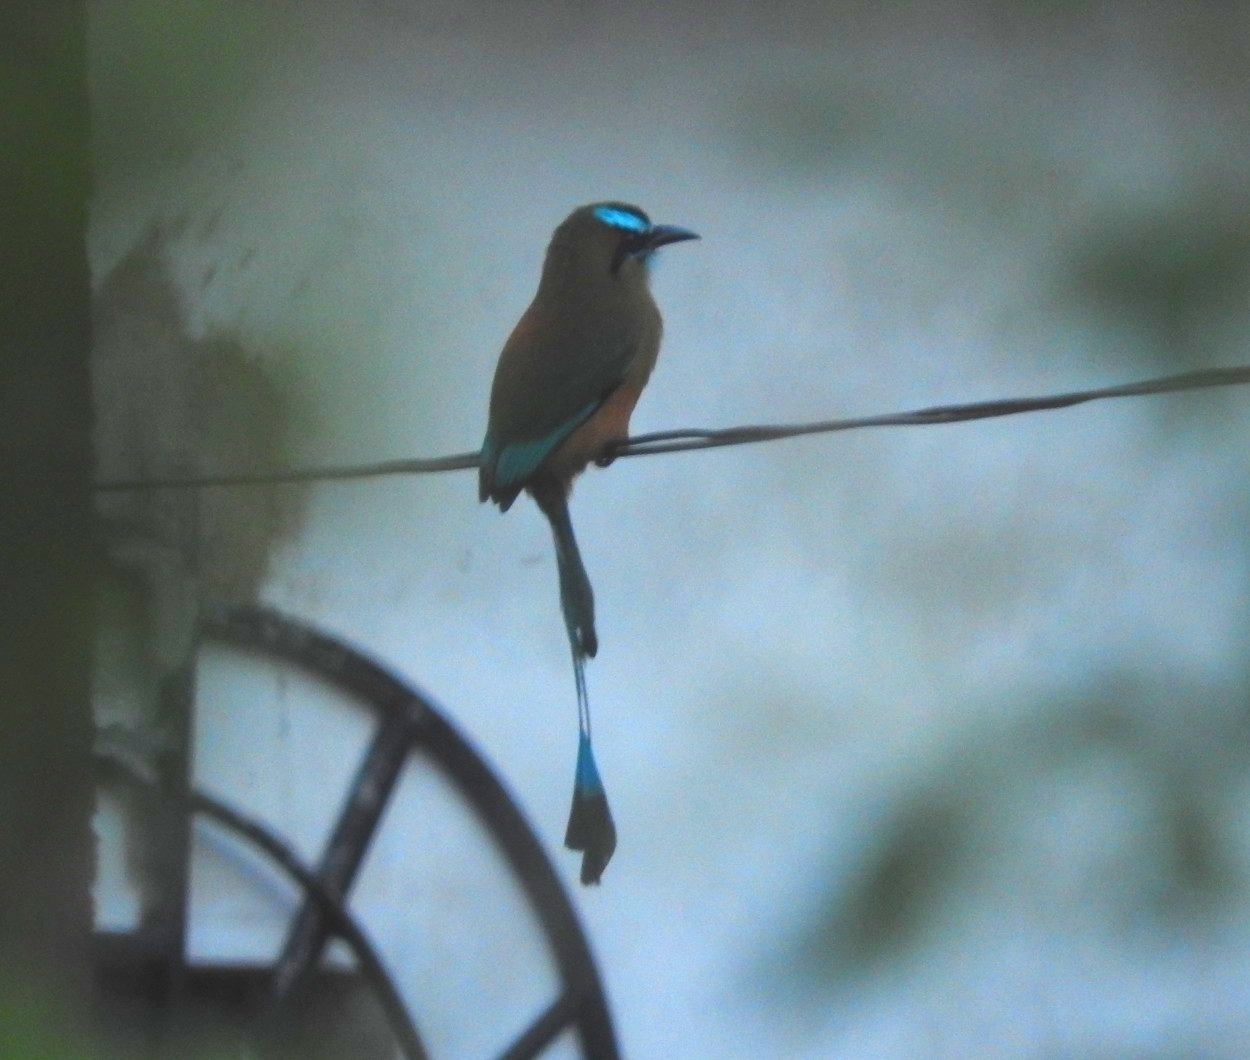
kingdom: Animalia
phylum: Chordata
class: Aves
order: Coraciiformes
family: Momotidae
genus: Eumomota
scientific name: Eumomota superciliosa
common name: Turquoise-browed motmot
